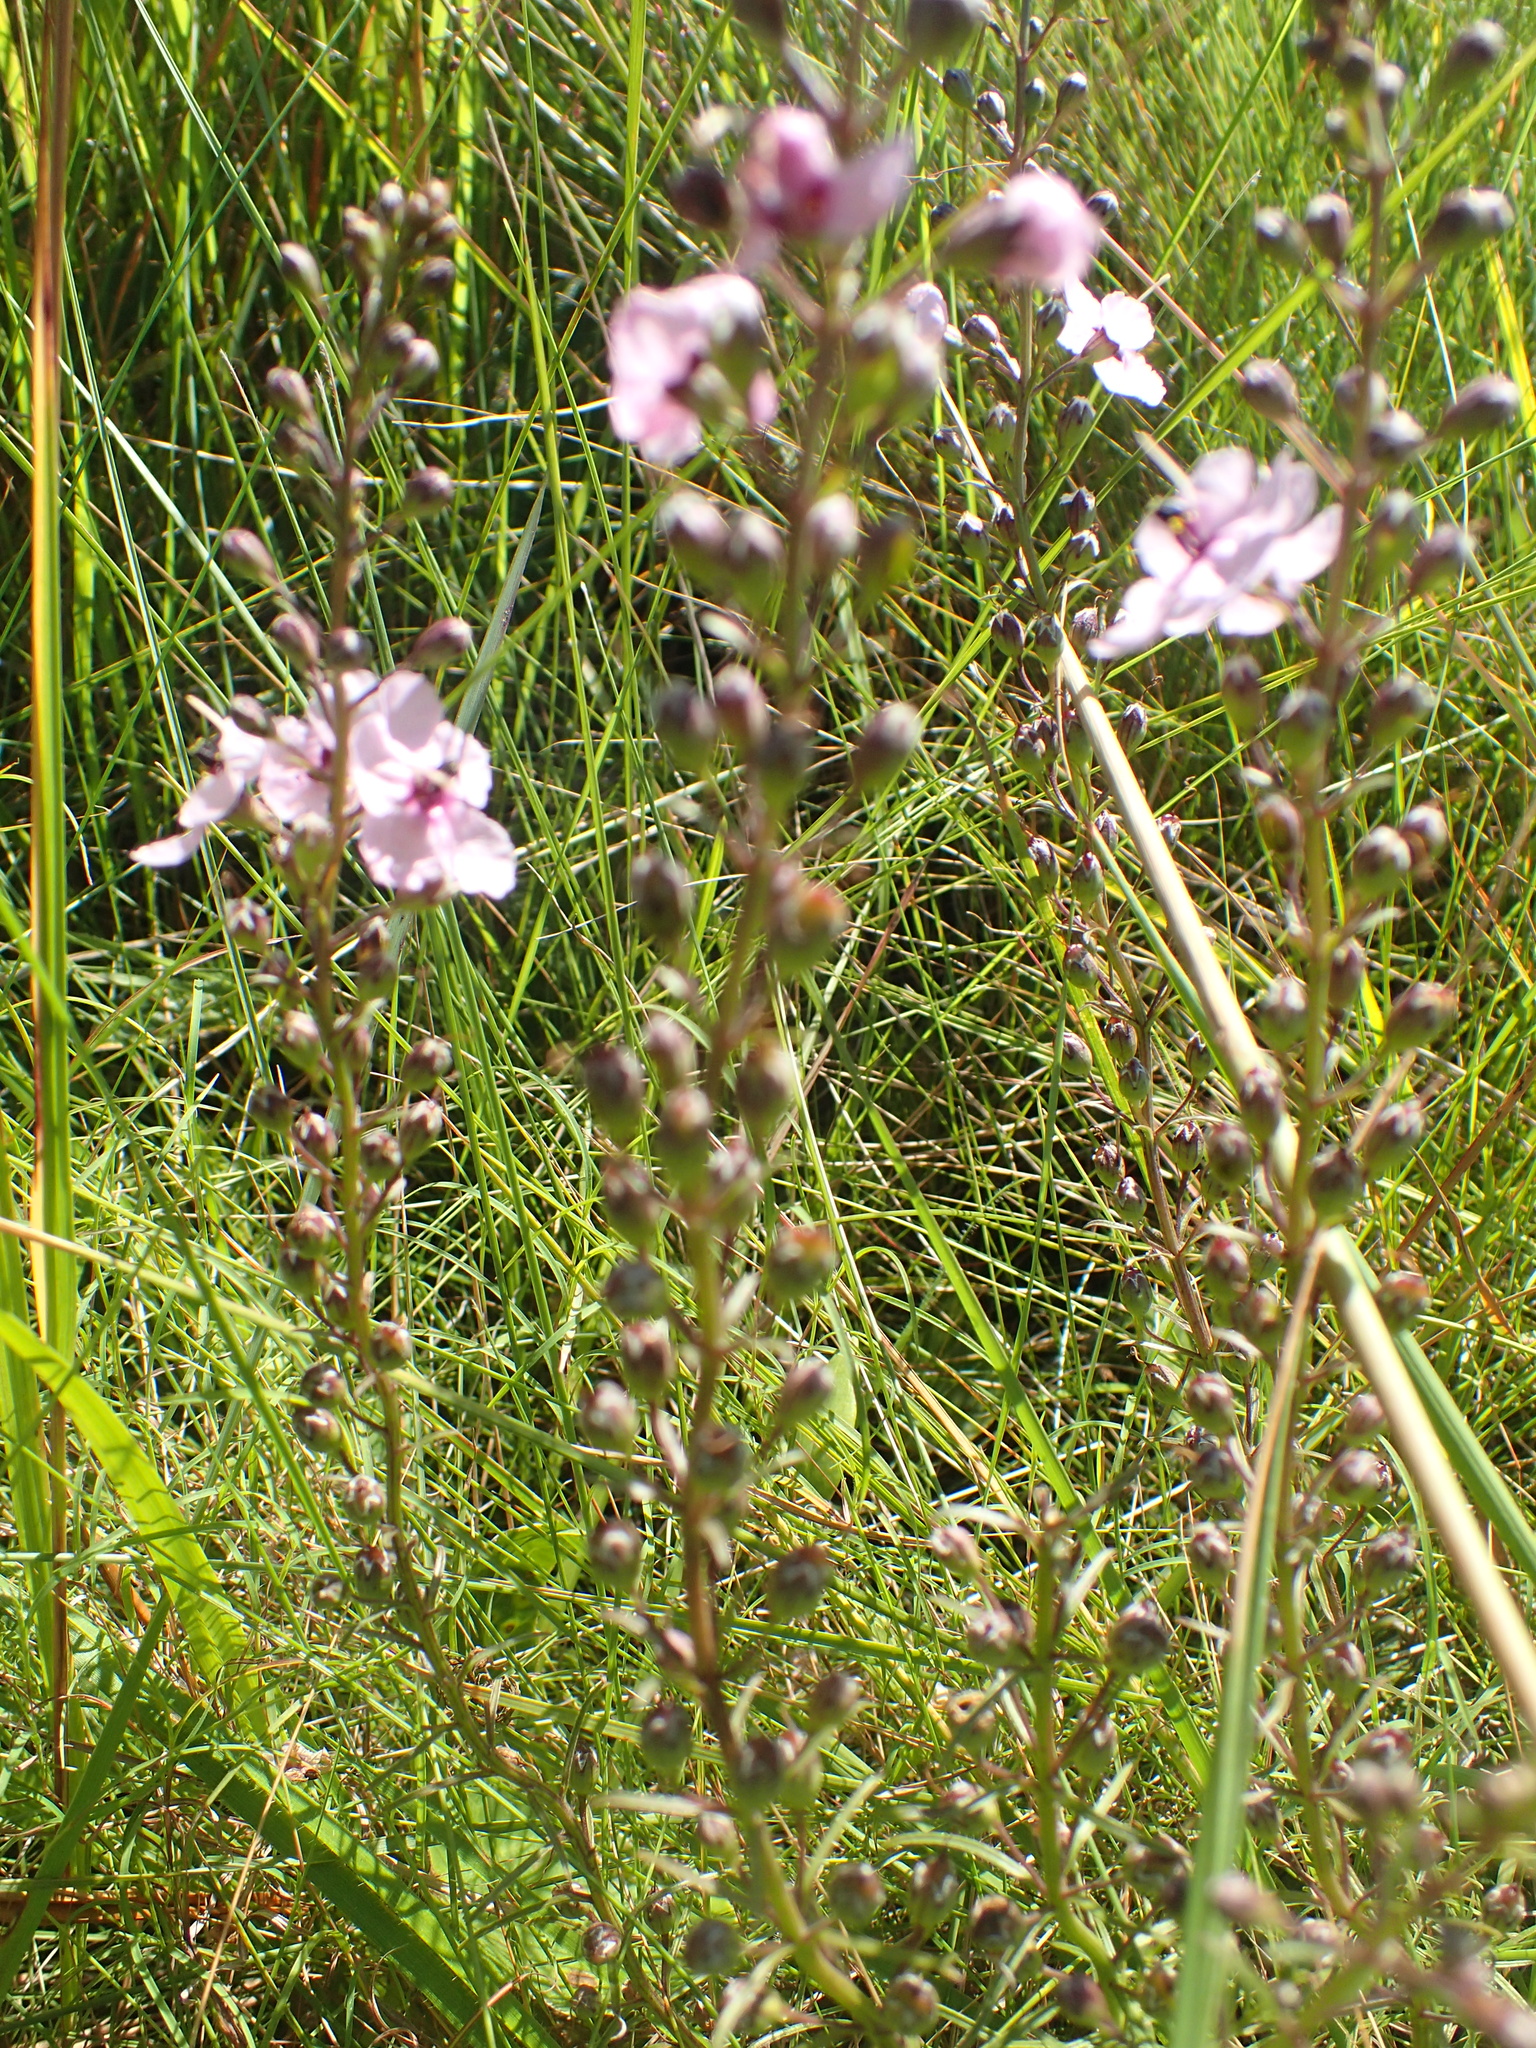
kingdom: Plantae
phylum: Tracheophyta
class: Magnoliopsida
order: Lamiales
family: Orobanchaceae
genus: Sopubia
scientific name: Sopubia simplex
